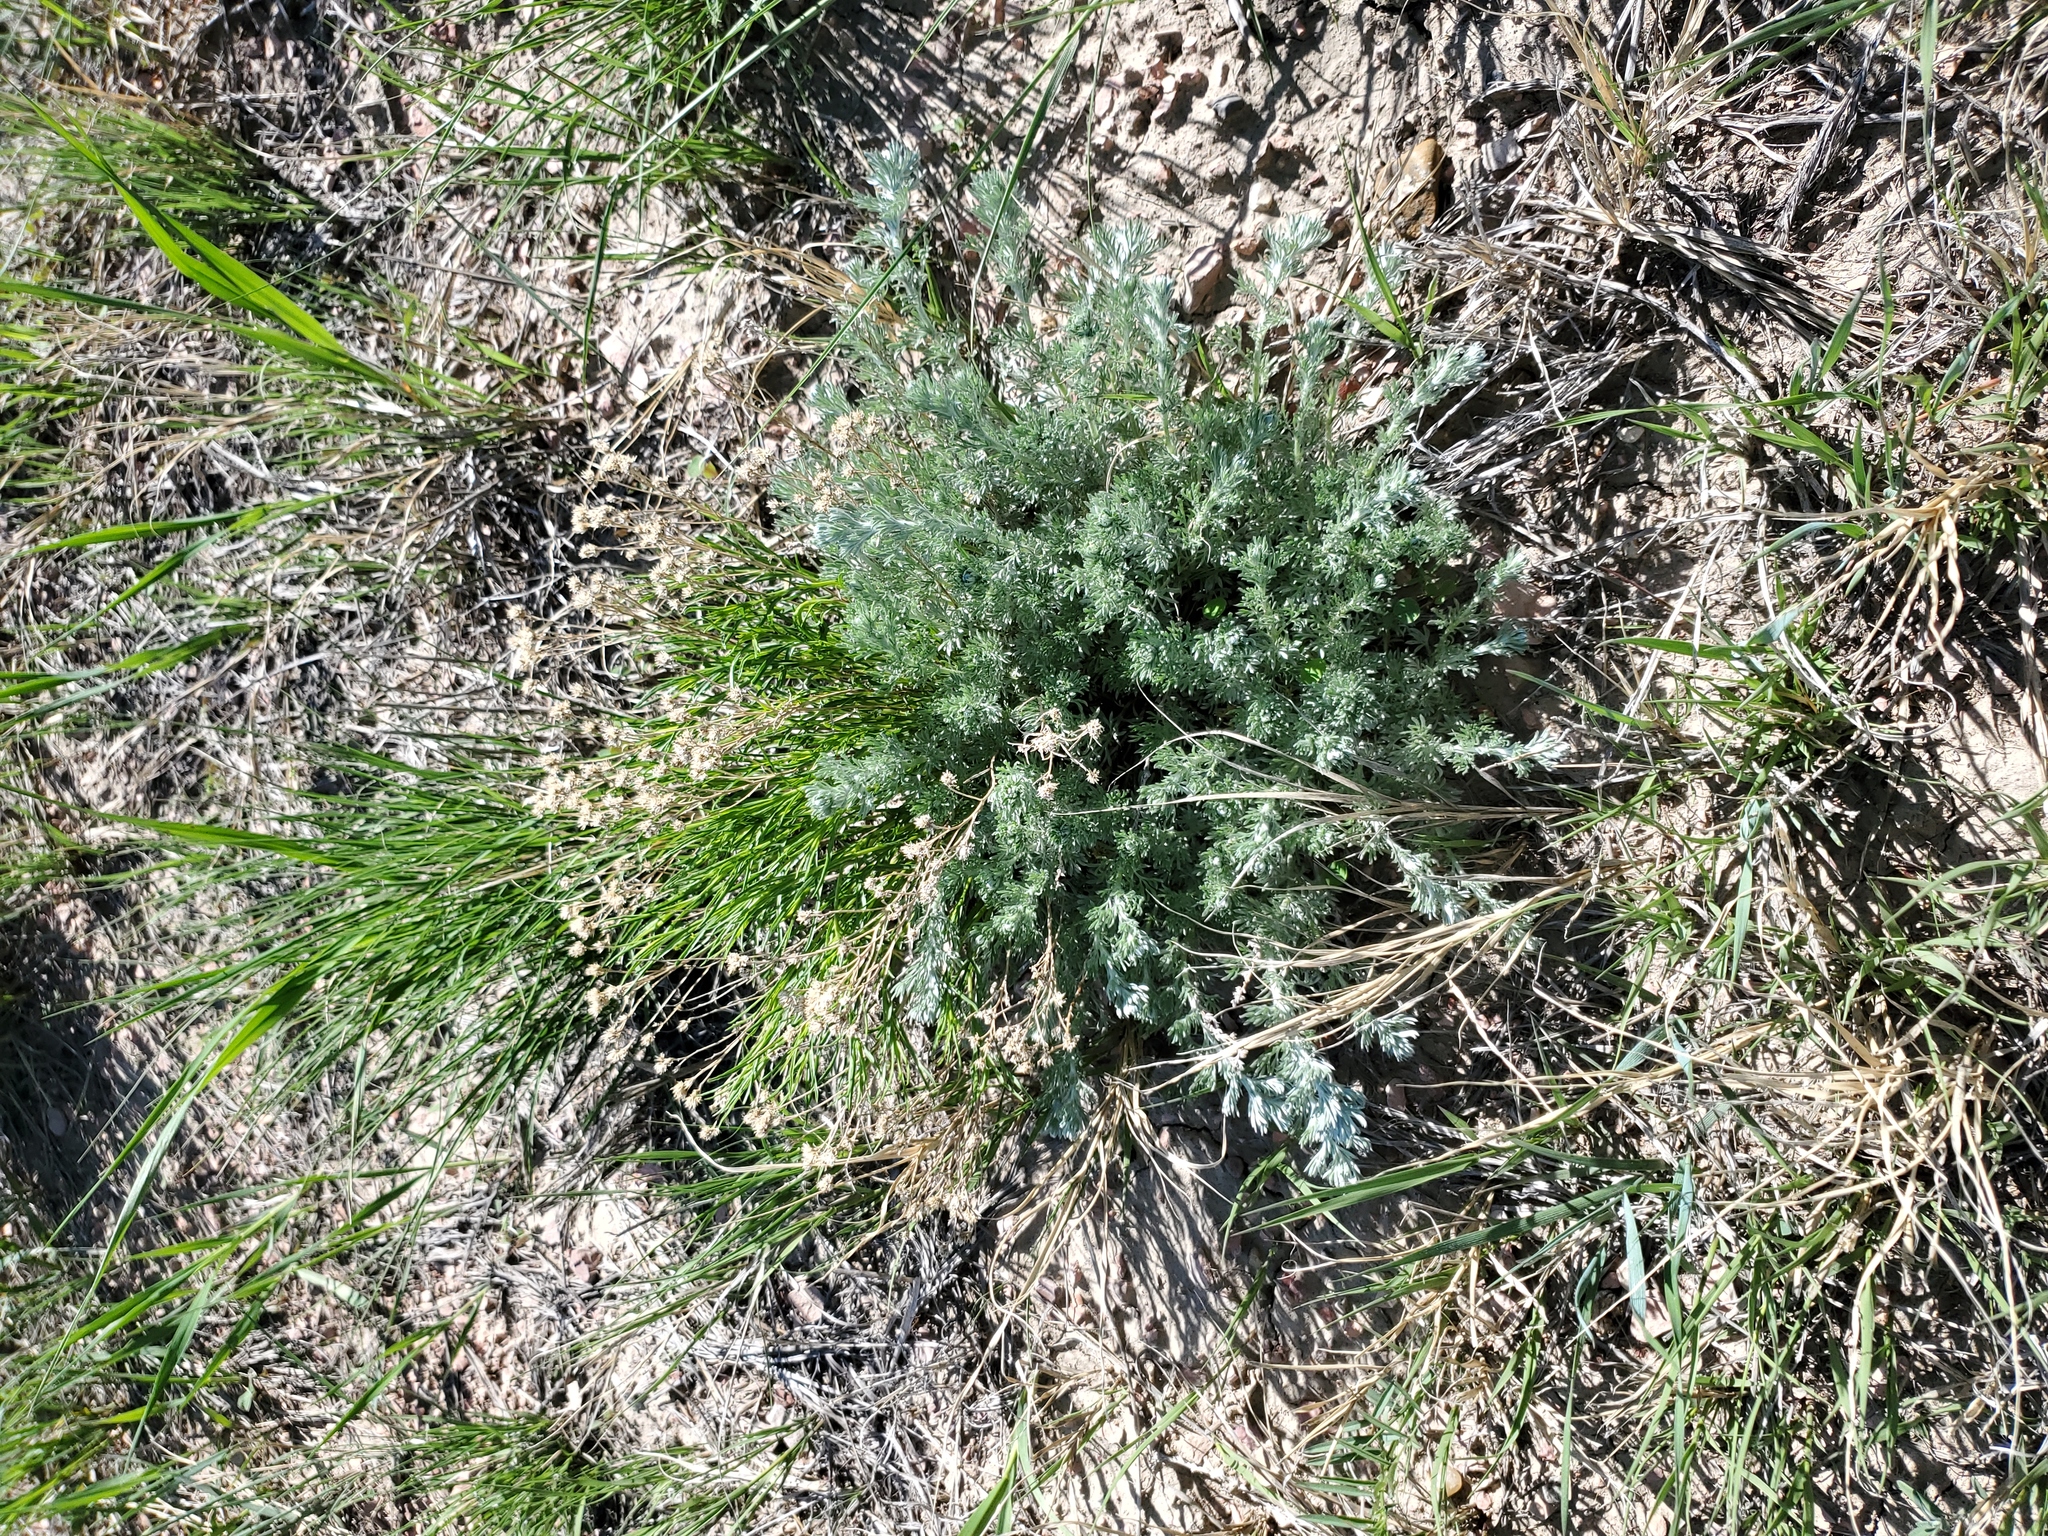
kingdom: Plantae
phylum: Tracheophyta
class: Magnoliopsida
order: Asterales
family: Asteraceae
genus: Artemisia
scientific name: Artemisia frigida
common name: Prairie sagewort
